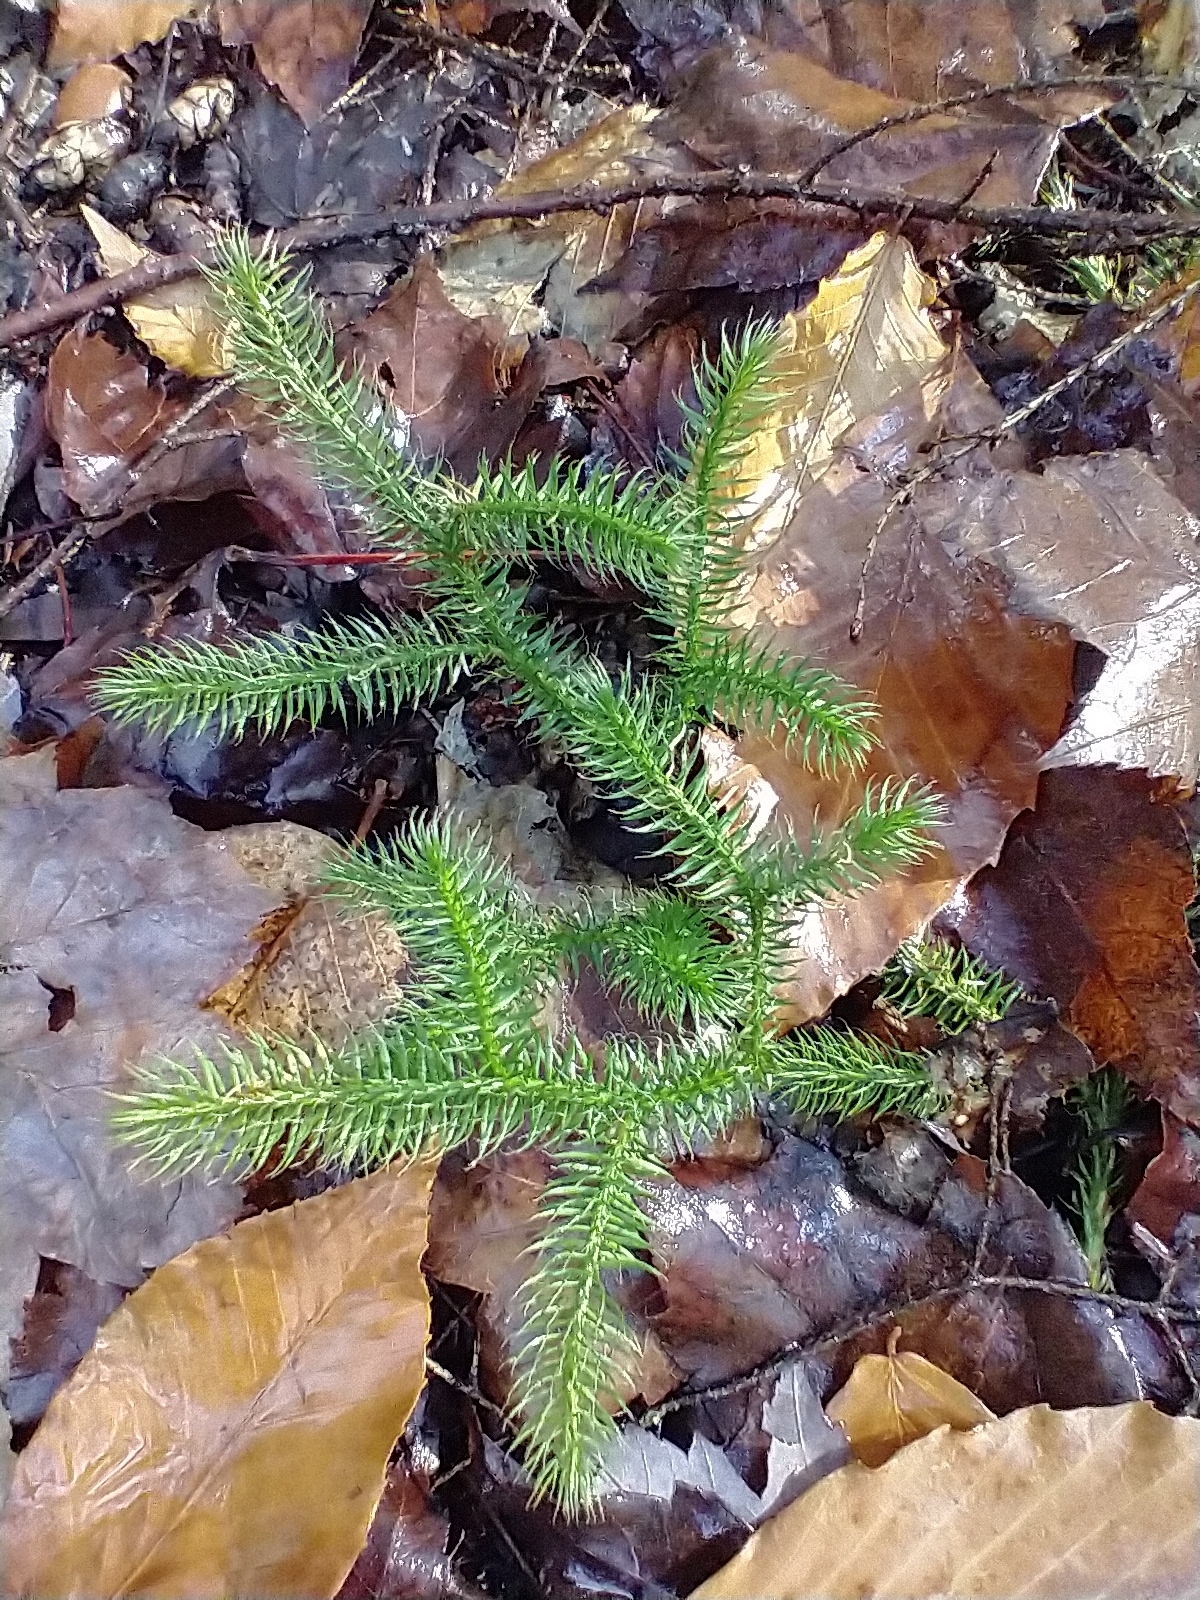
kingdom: Plantae
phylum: Tracheophyta
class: Lycopodiopsida
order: Lycopodiales
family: Lycopodiaceae
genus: Lycopodium
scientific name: Lycopodium clavatum
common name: Stag's-horn clubmoss
